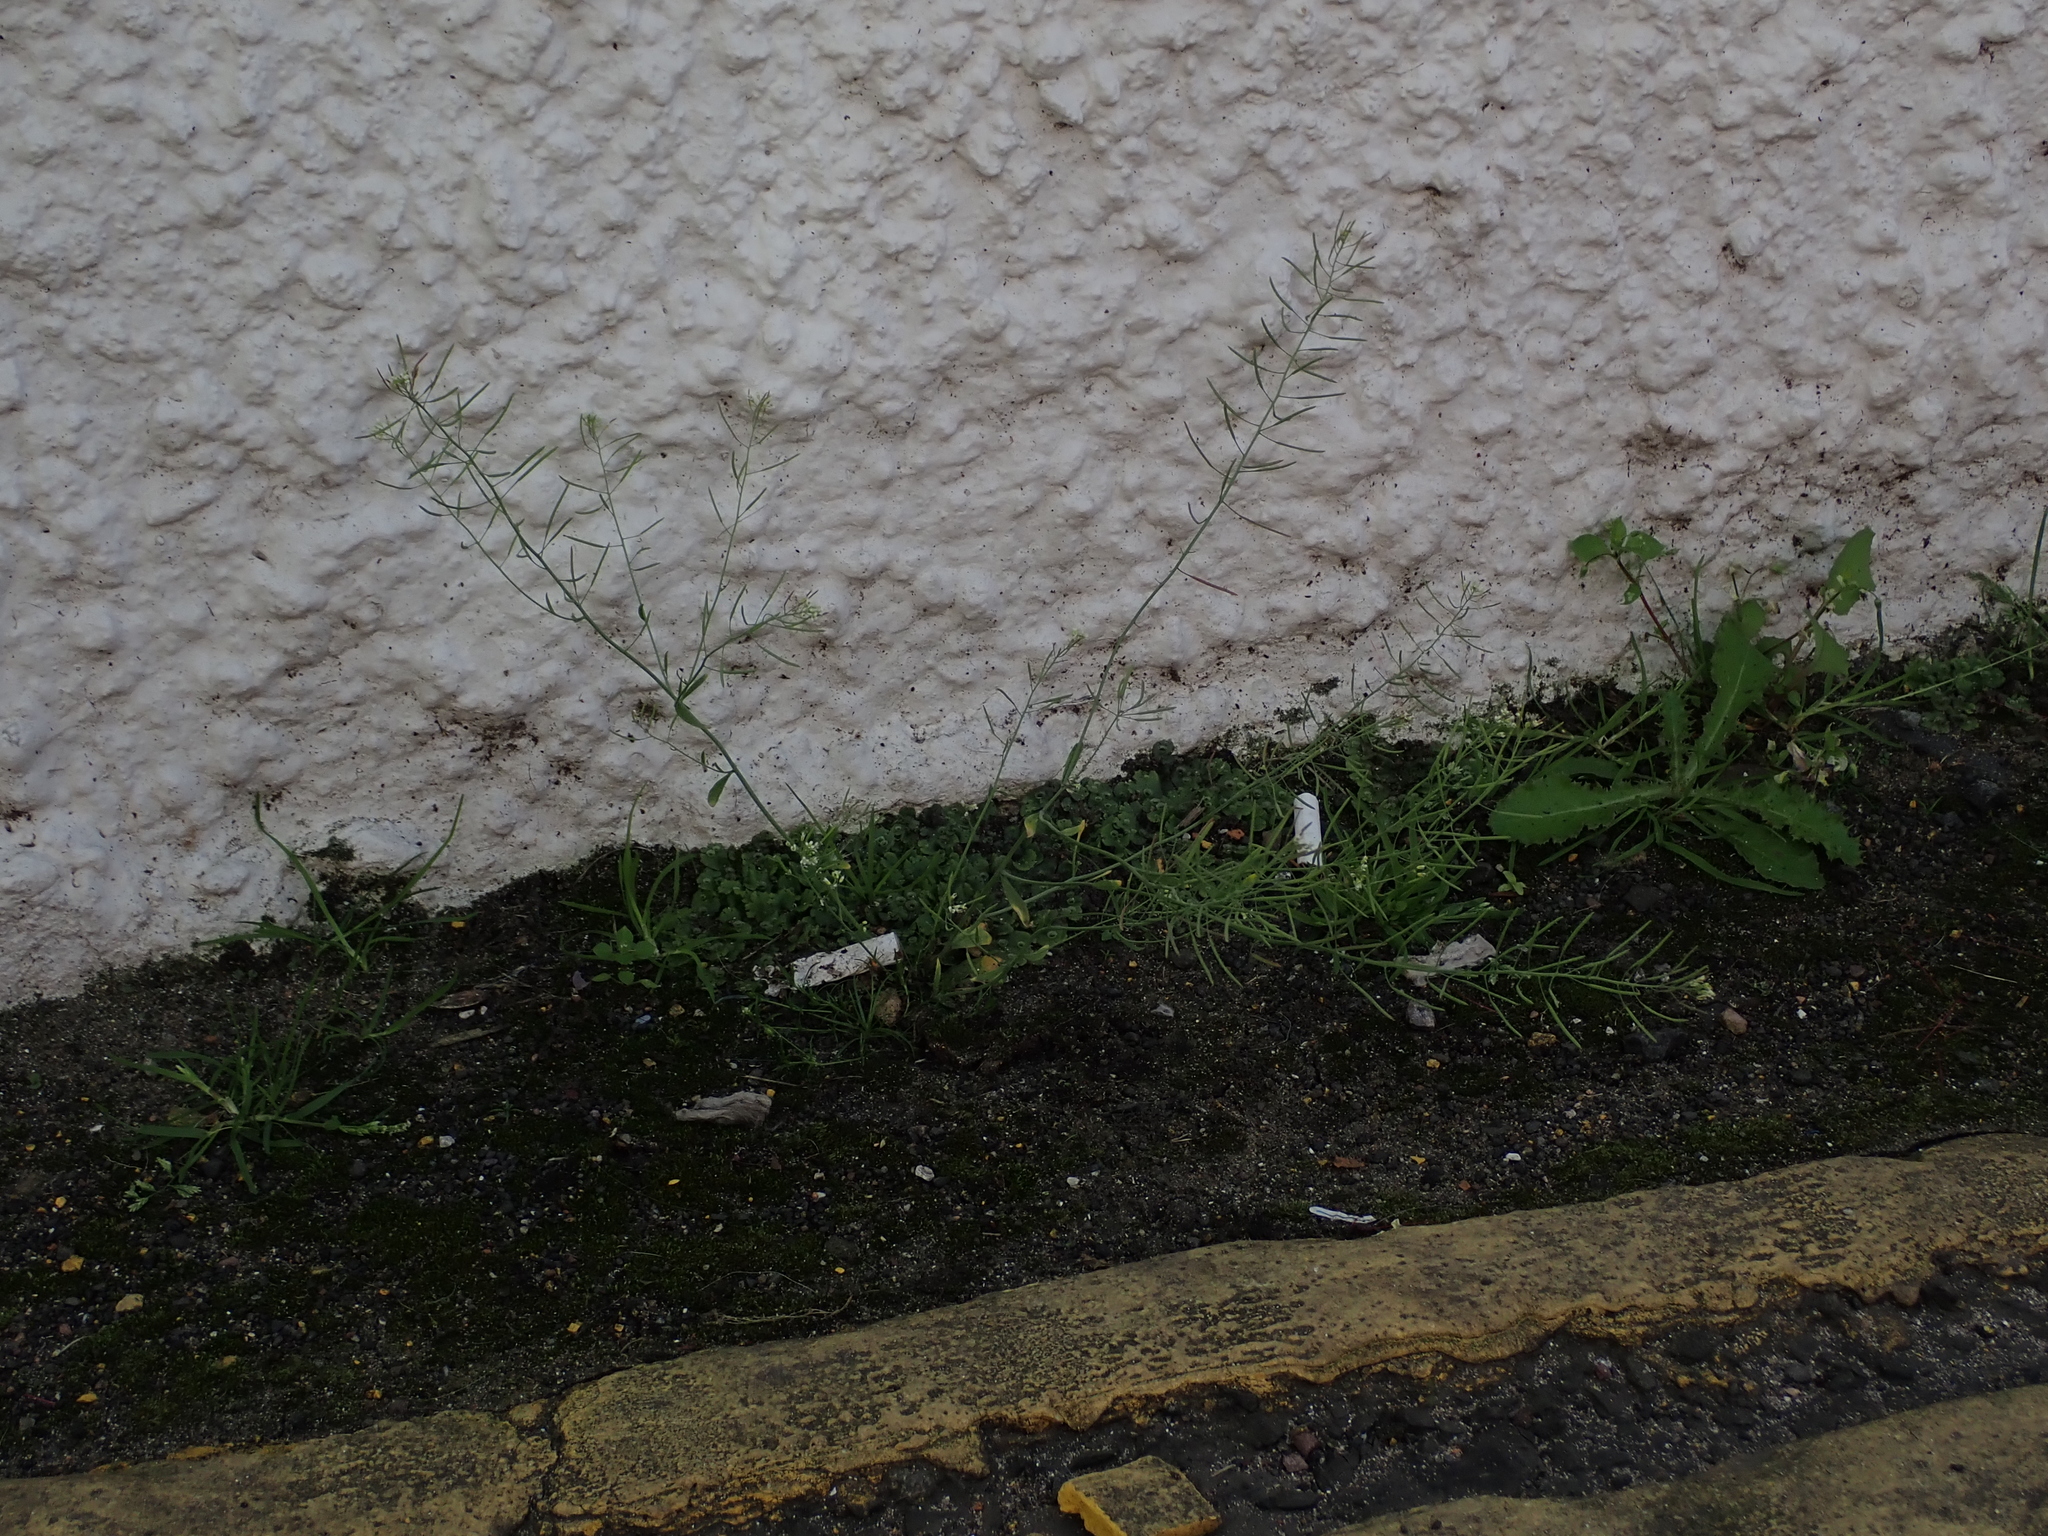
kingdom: Plantae
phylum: Tracheophyta
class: Magnoliopsida
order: Brassicales
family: Brassicaceae
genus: Arabidopsis
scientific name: Arabidopsis thaliana
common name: Thale cress
